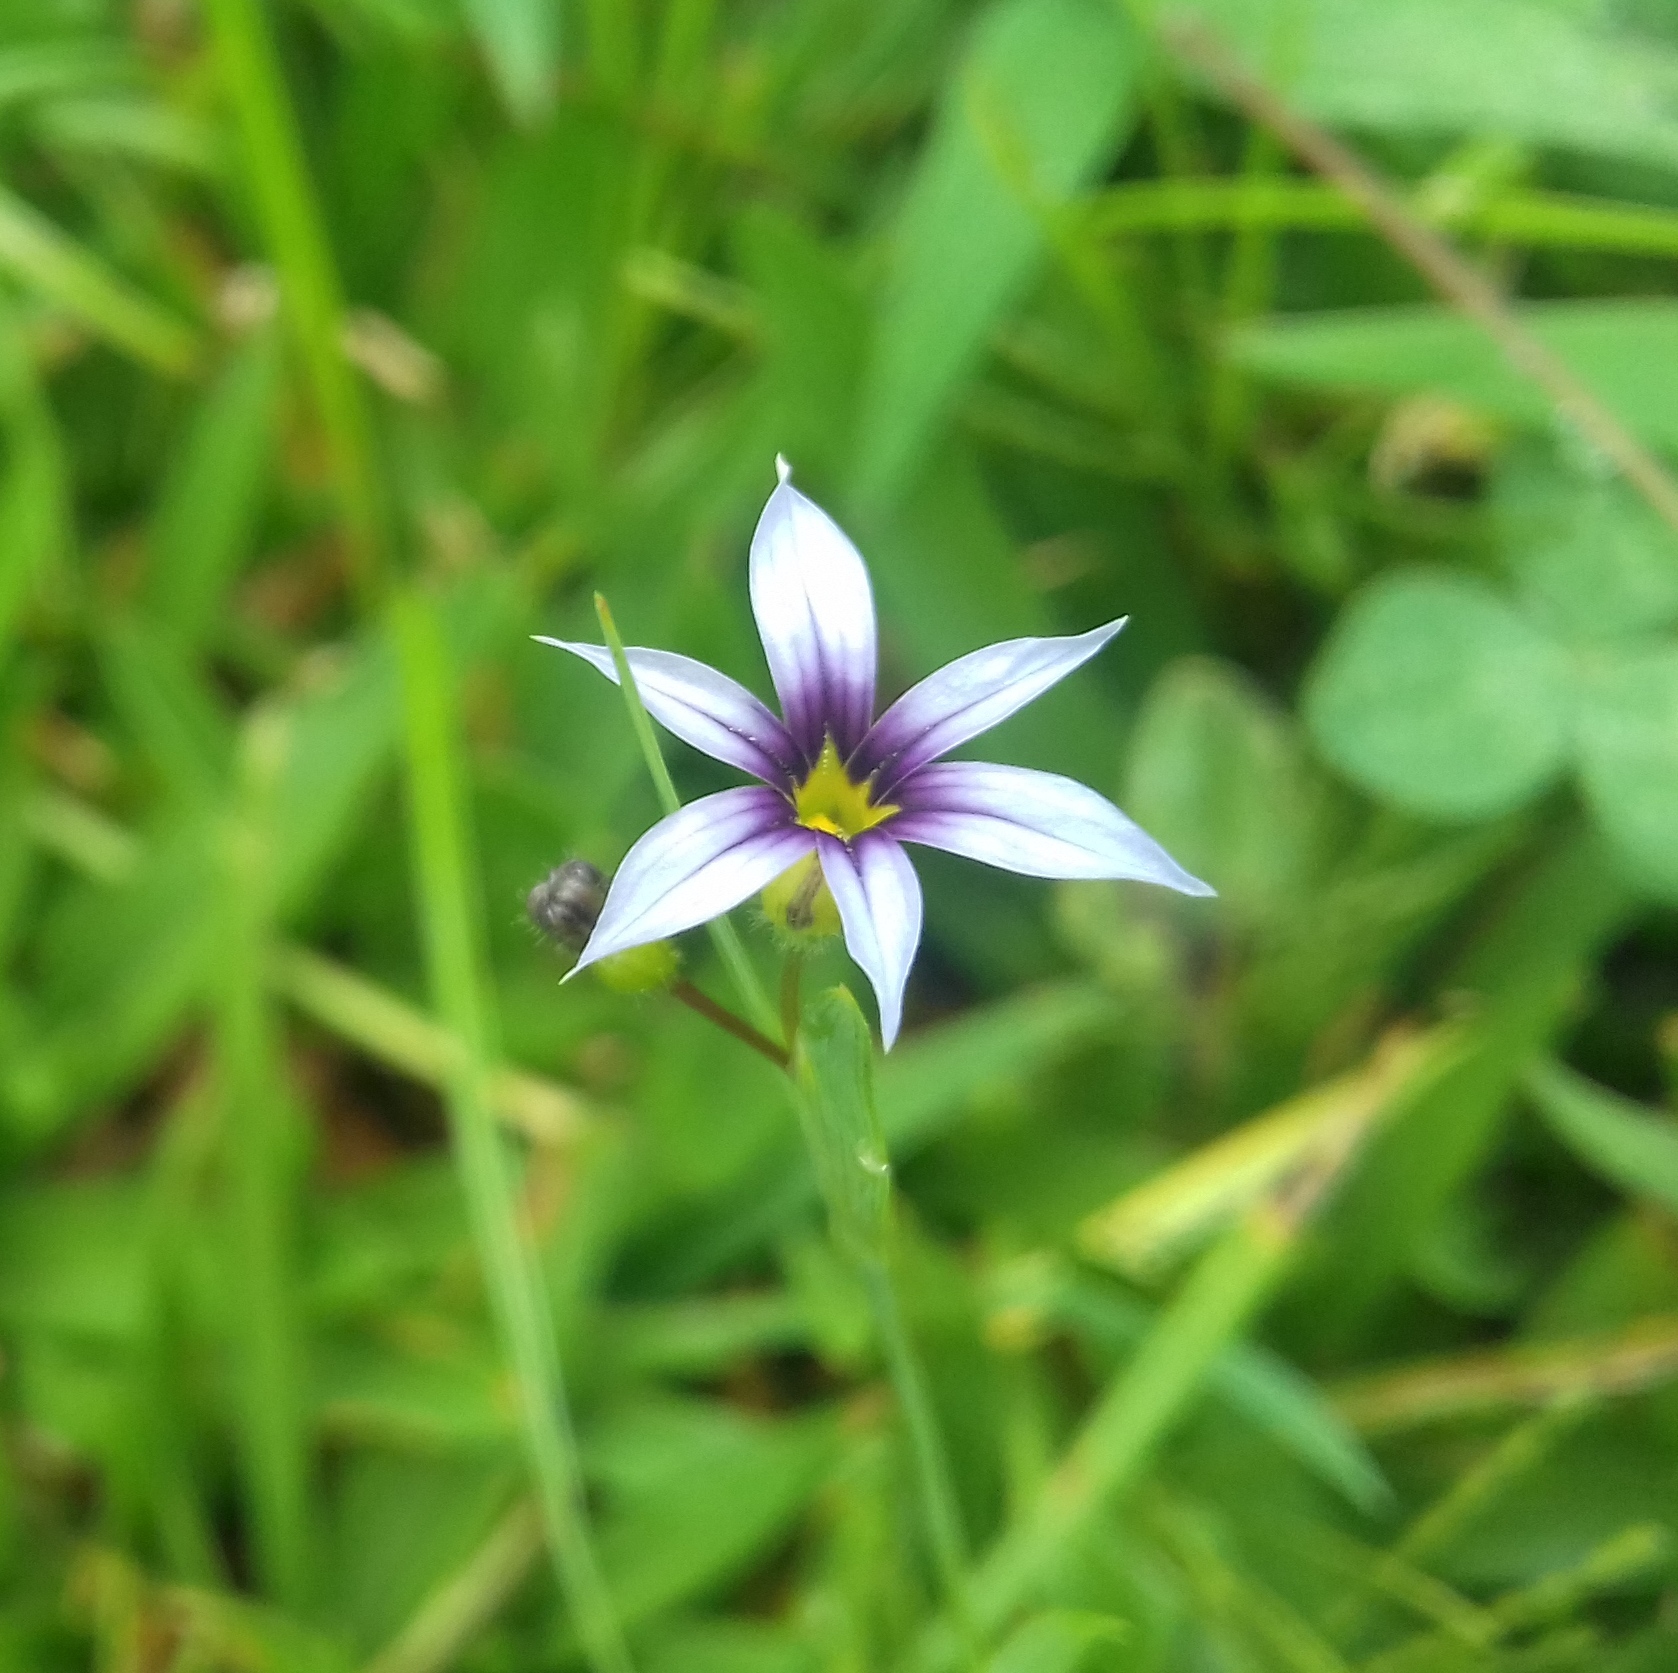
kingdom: Plantae
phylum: Tracheophyta
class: Liliopsida
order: Asparagales
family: Iridaceae
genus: Sisyrinchium
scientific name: Sisyrinchium micranthum
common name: Bermuda pigroot
